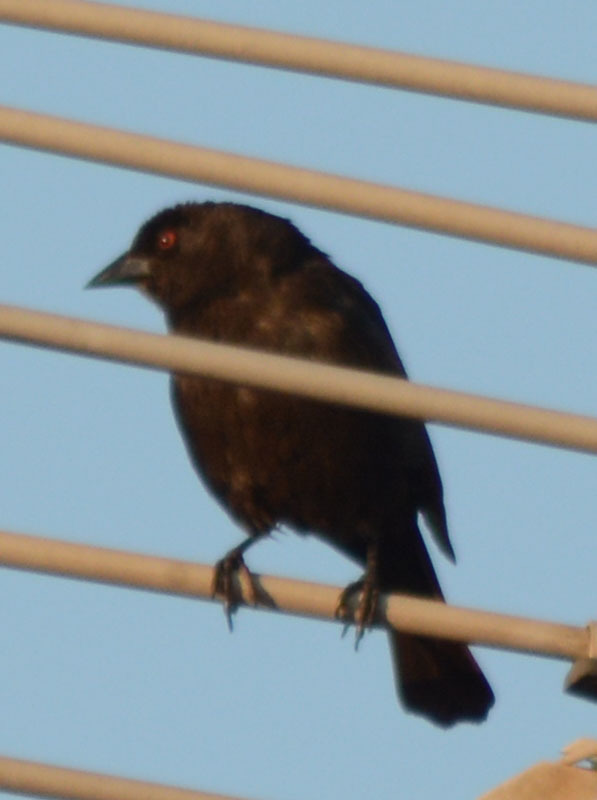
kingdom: Animalia
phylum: Chordata
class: Aves
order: Passeriformes
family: Icteridae
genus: Molothrus
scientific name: Molothrus aeneus
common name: Bronzed cowbird
